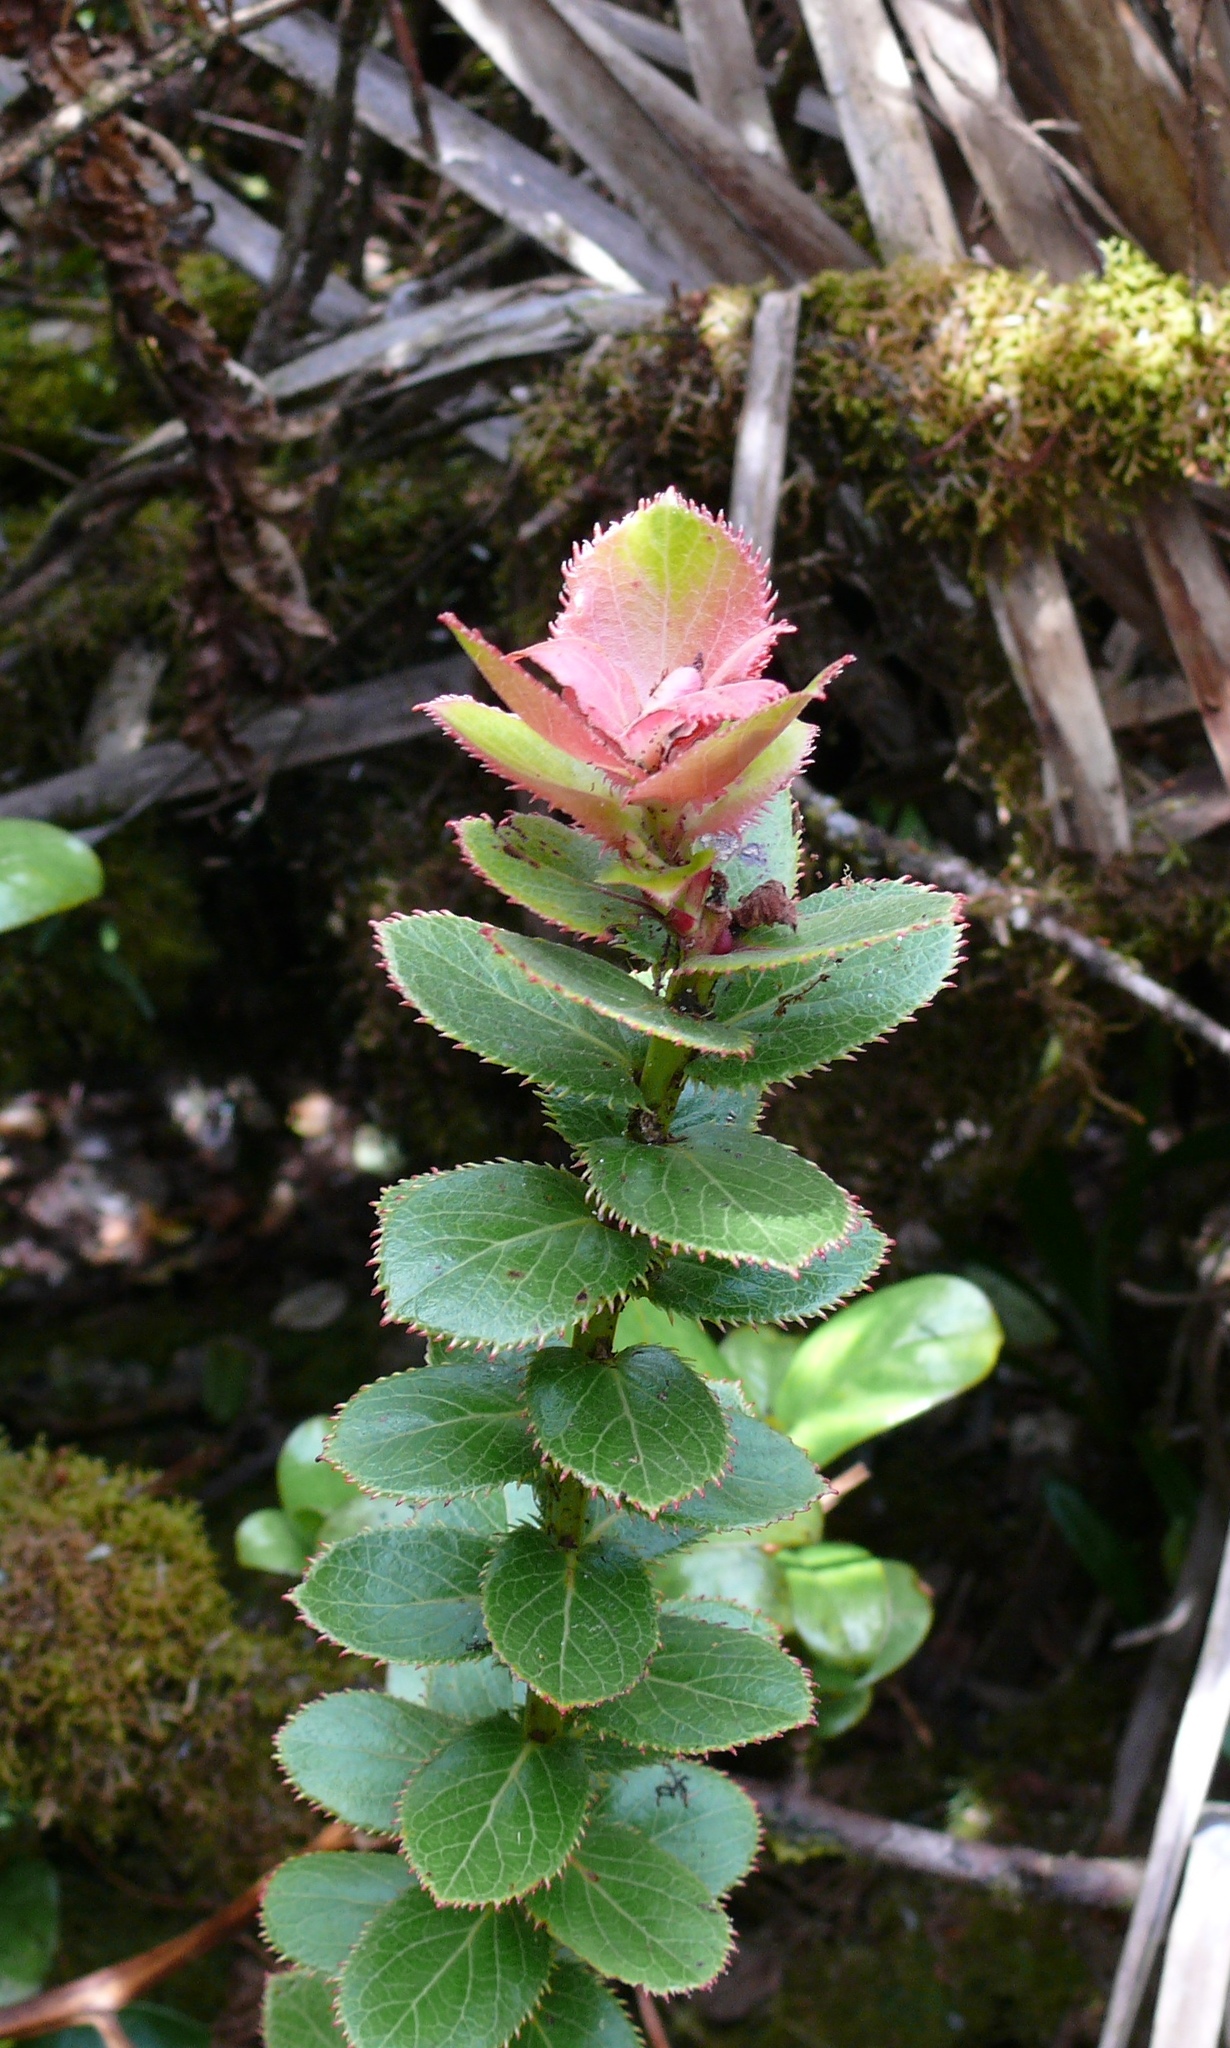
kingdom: Plantae
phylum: Tracheophyta
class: Magnoliopsida
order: Ericales
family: Ericaceae
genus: Vaccinium
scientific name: Vaccinium reticulatum
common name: Ohelo
